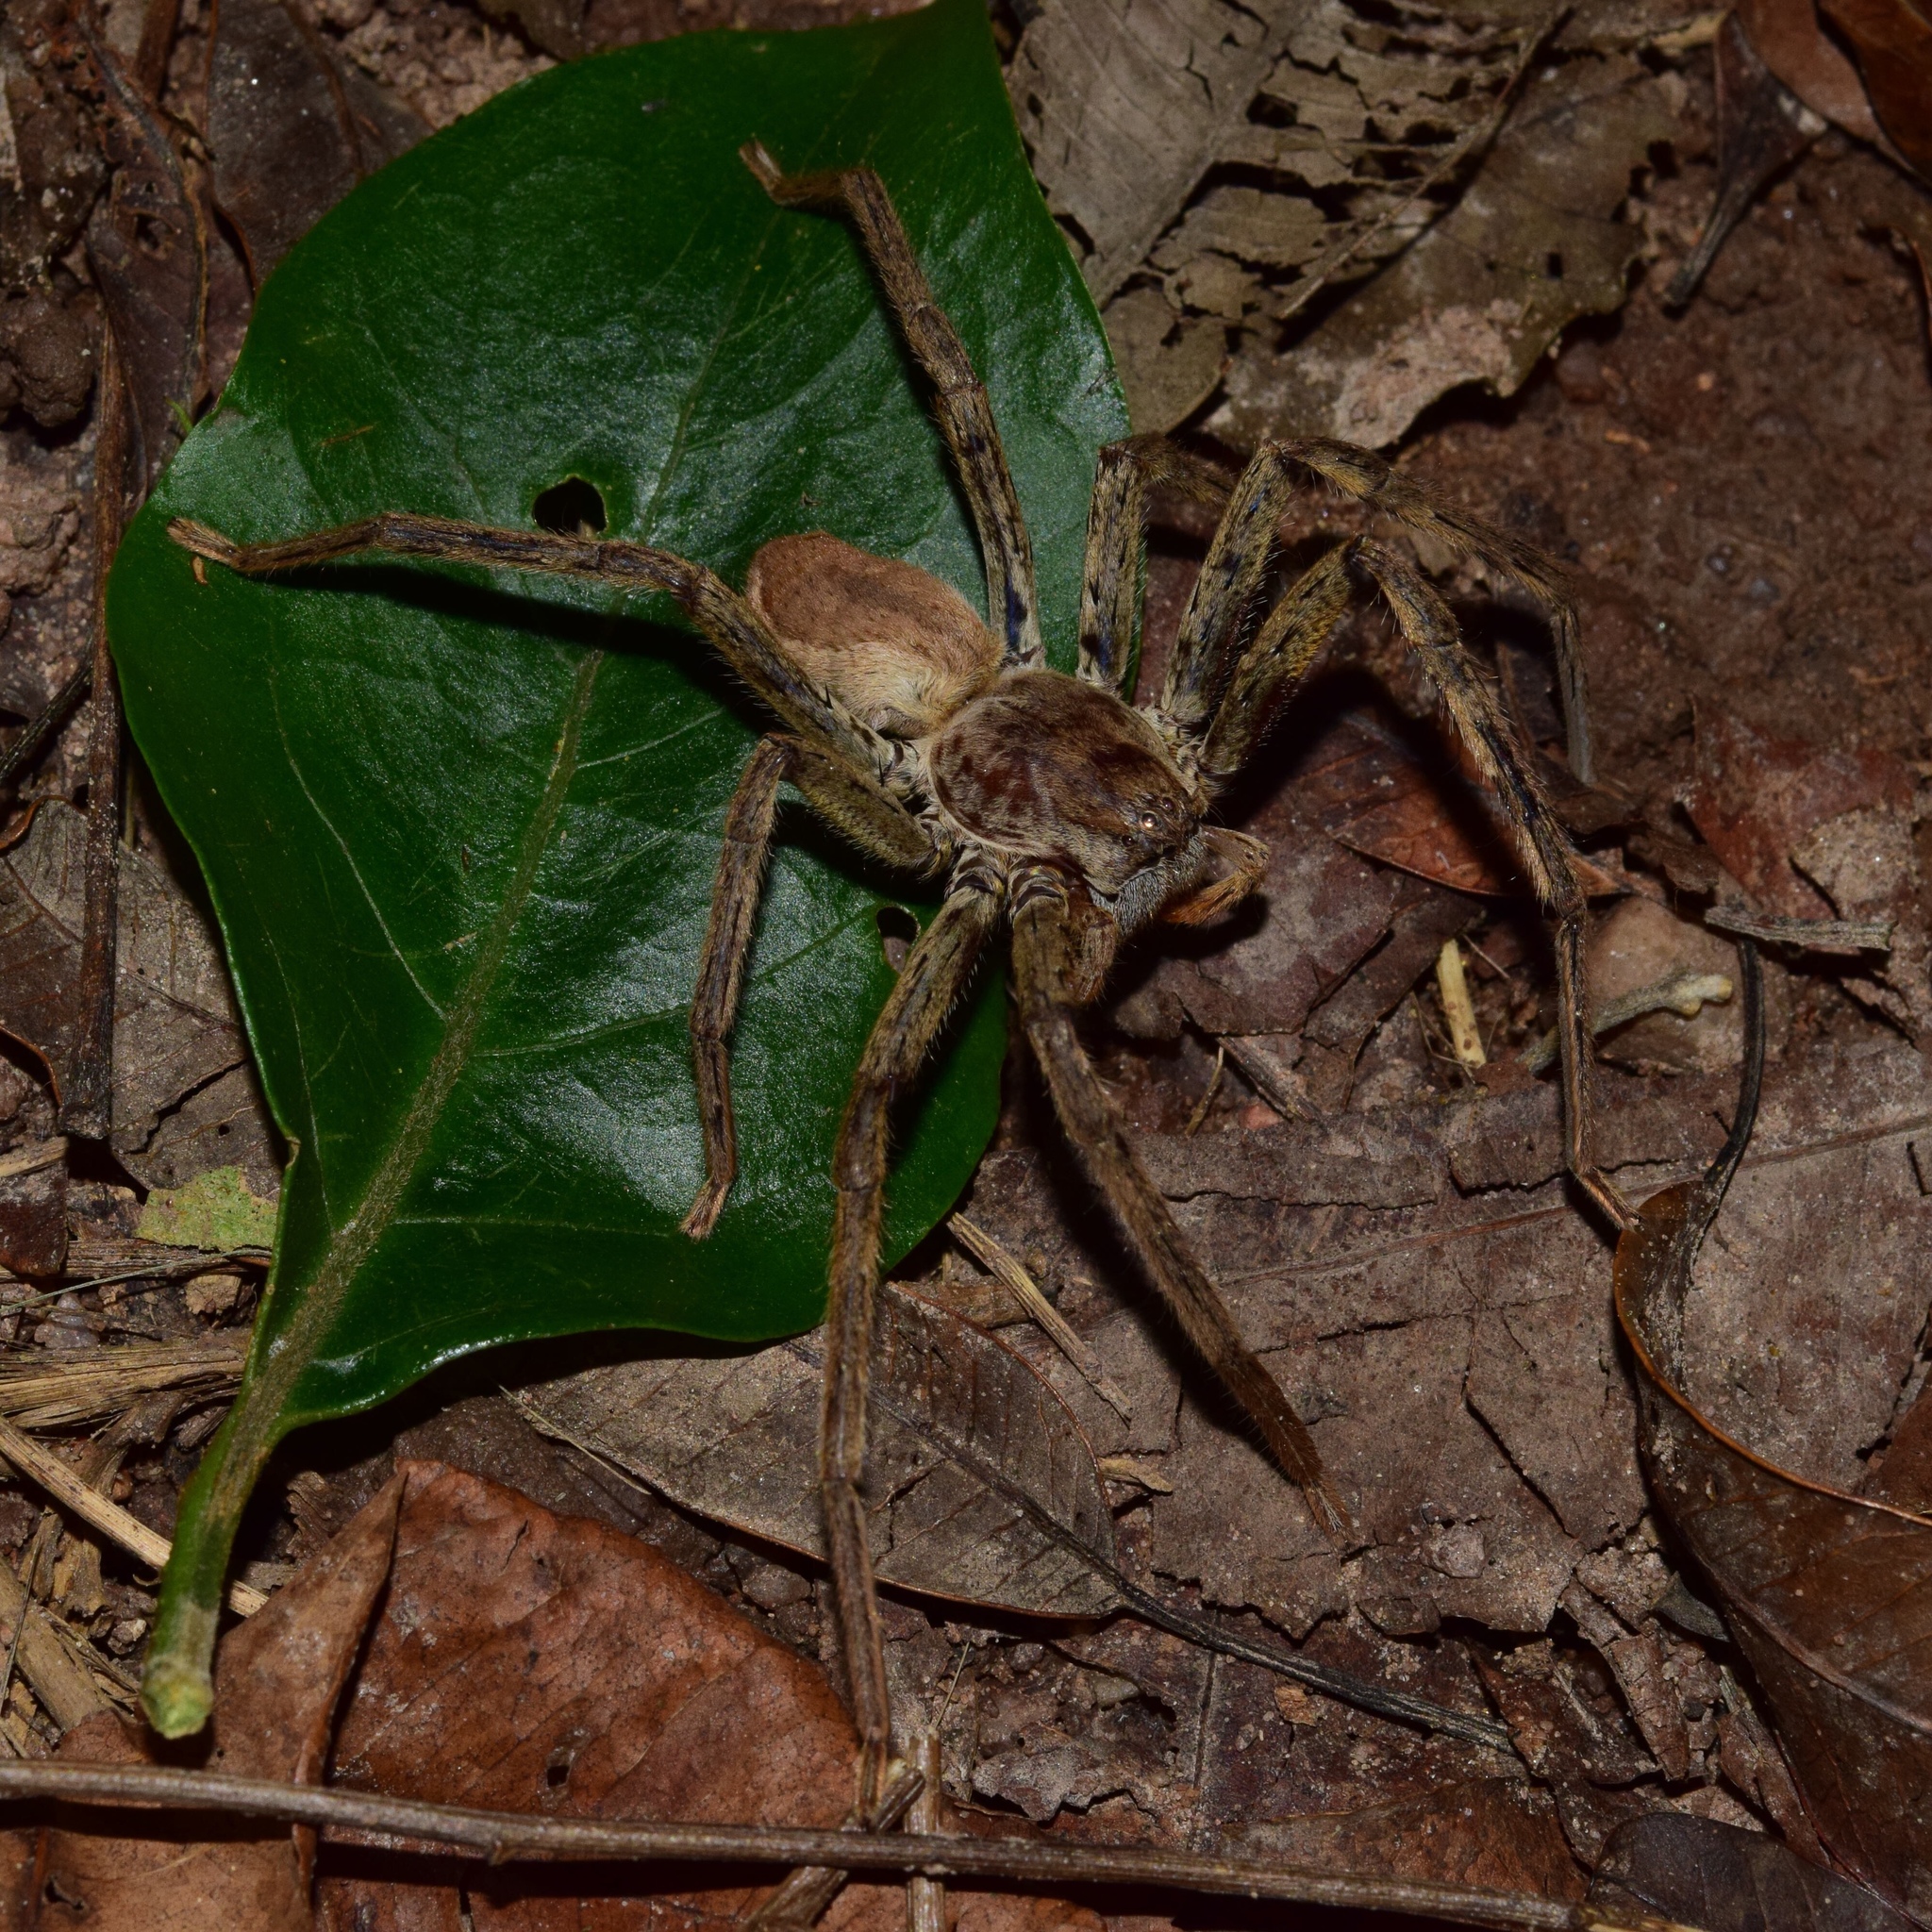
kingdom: Animalia
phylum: Arthropoda
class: Arachnida
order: Araneae
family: Sparassidae
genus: Palystes
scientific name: Palystes superciliosus
